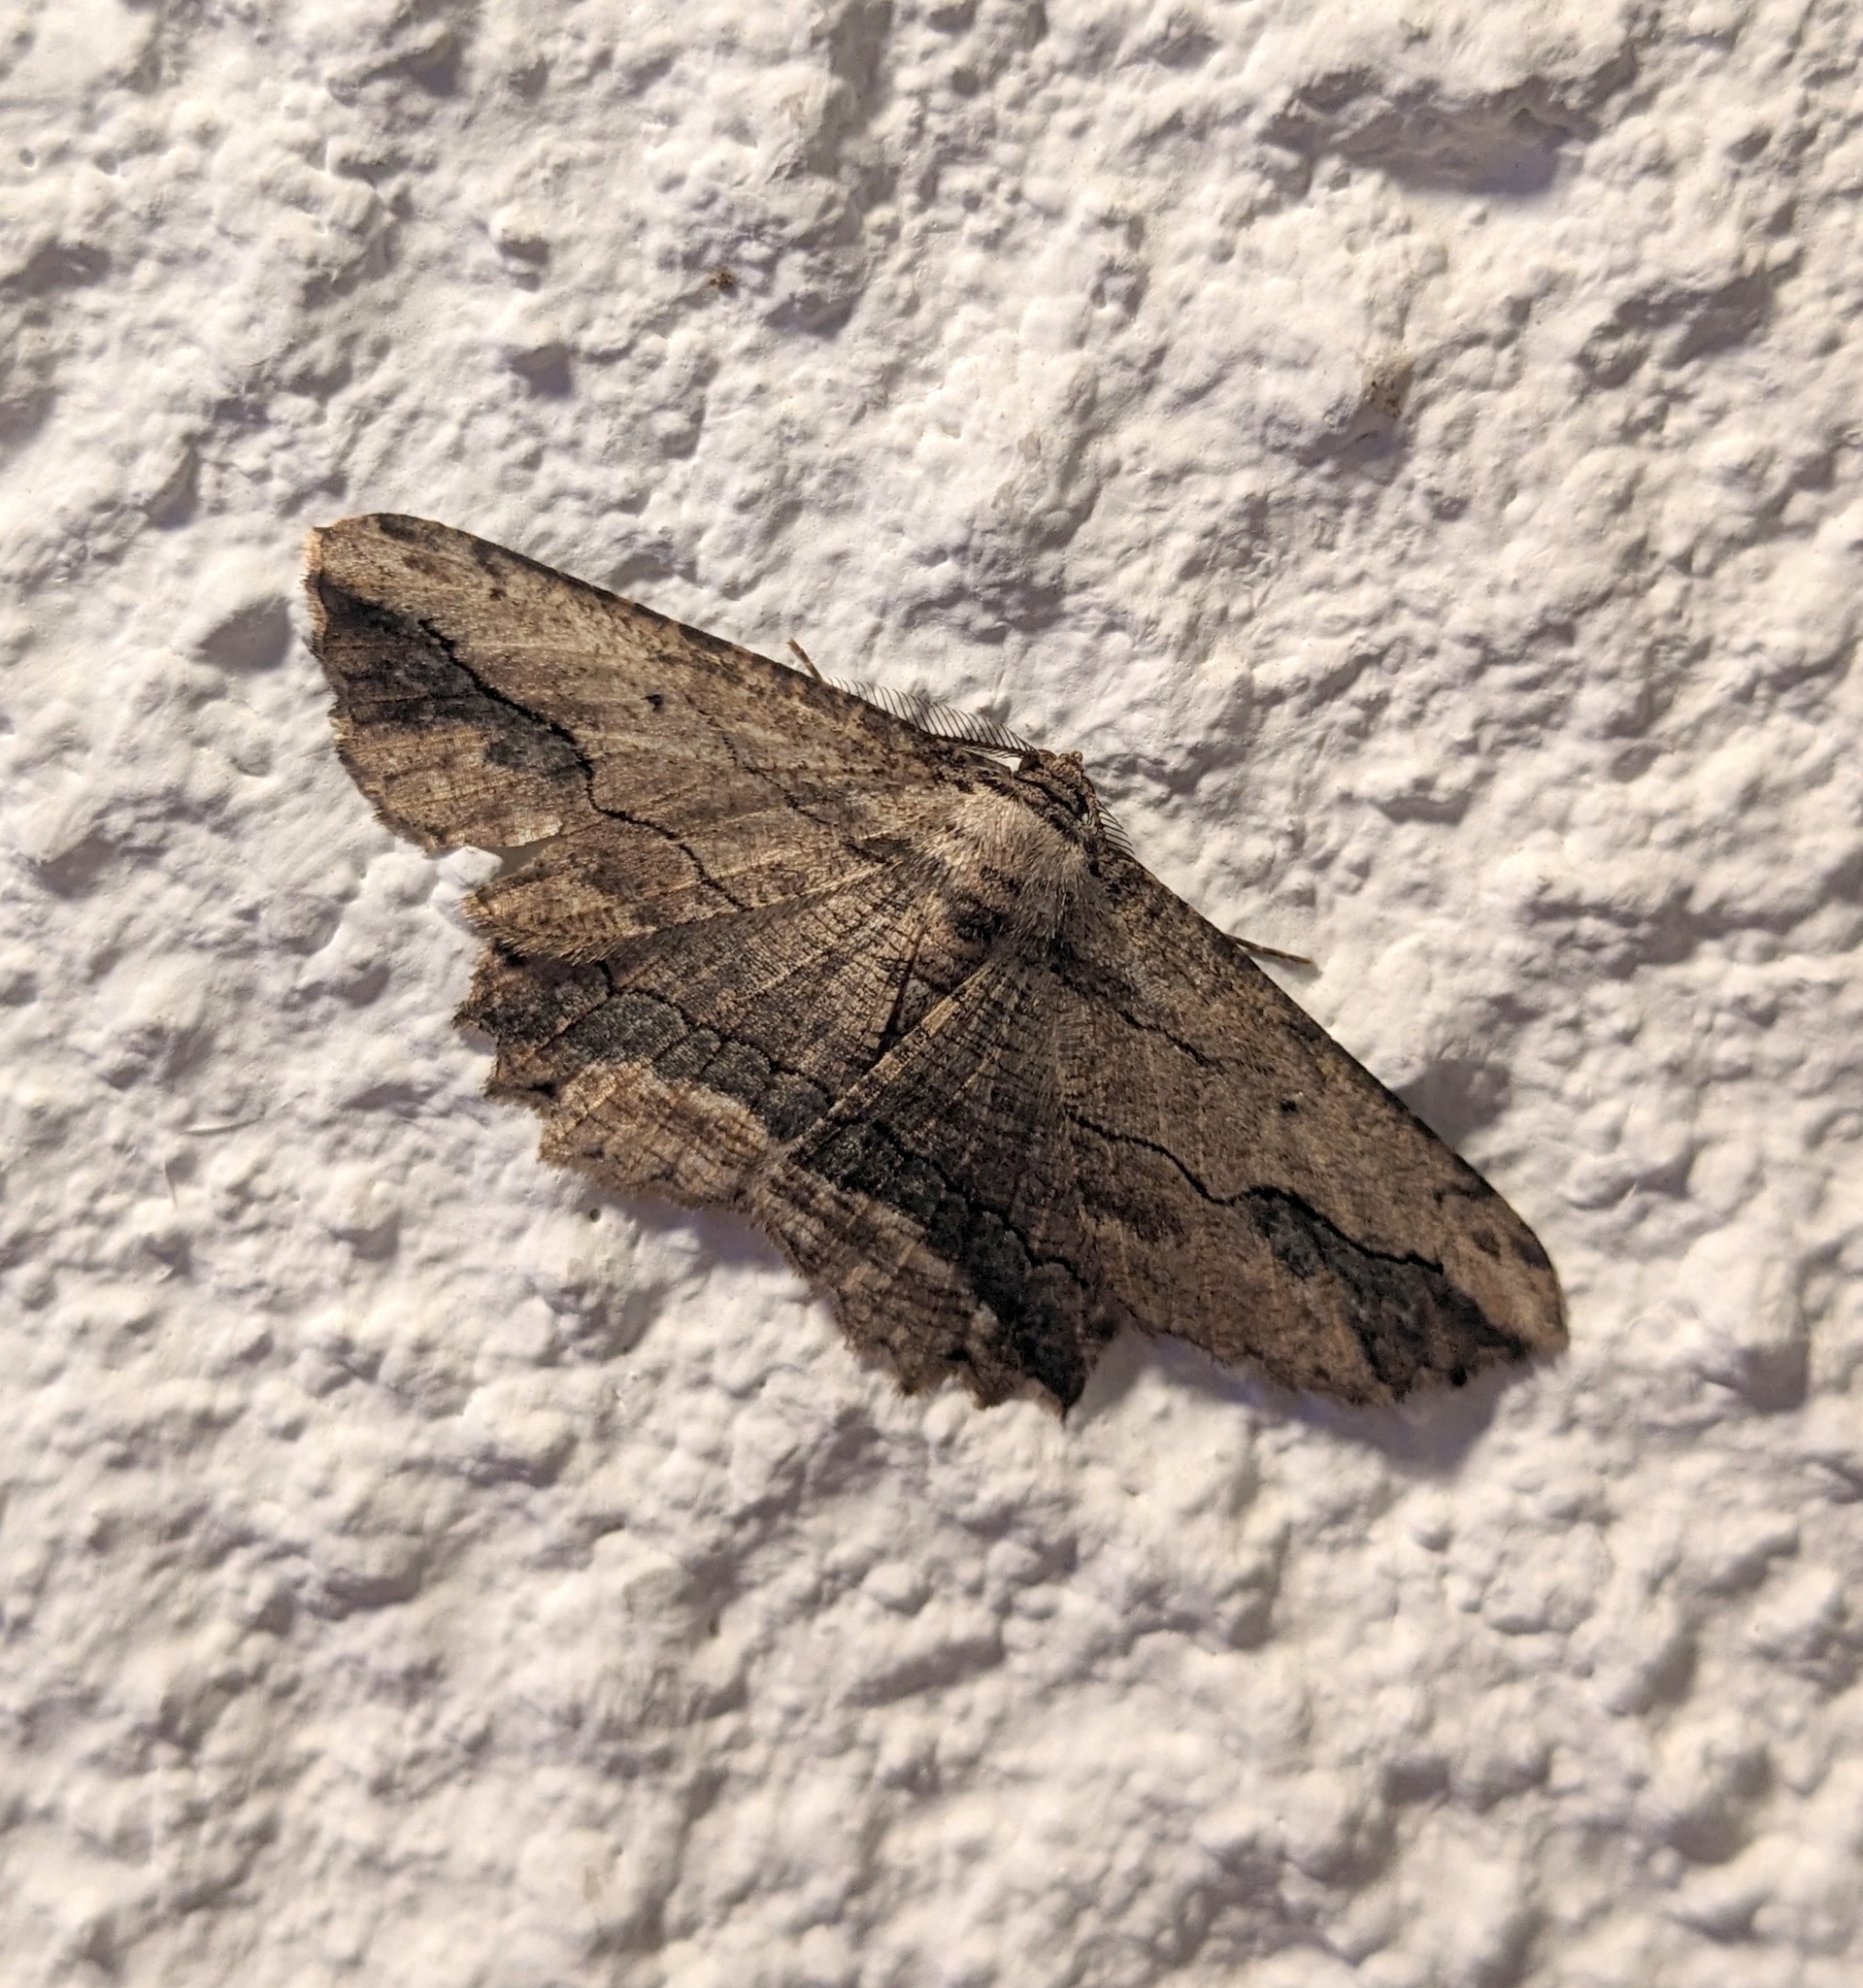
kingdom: Animalia
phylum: Arthropoda
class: Insecta
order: Lepidoptera
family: Geometridae
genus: Menophra
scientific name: Menophra abruptaria
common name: Waved umber
